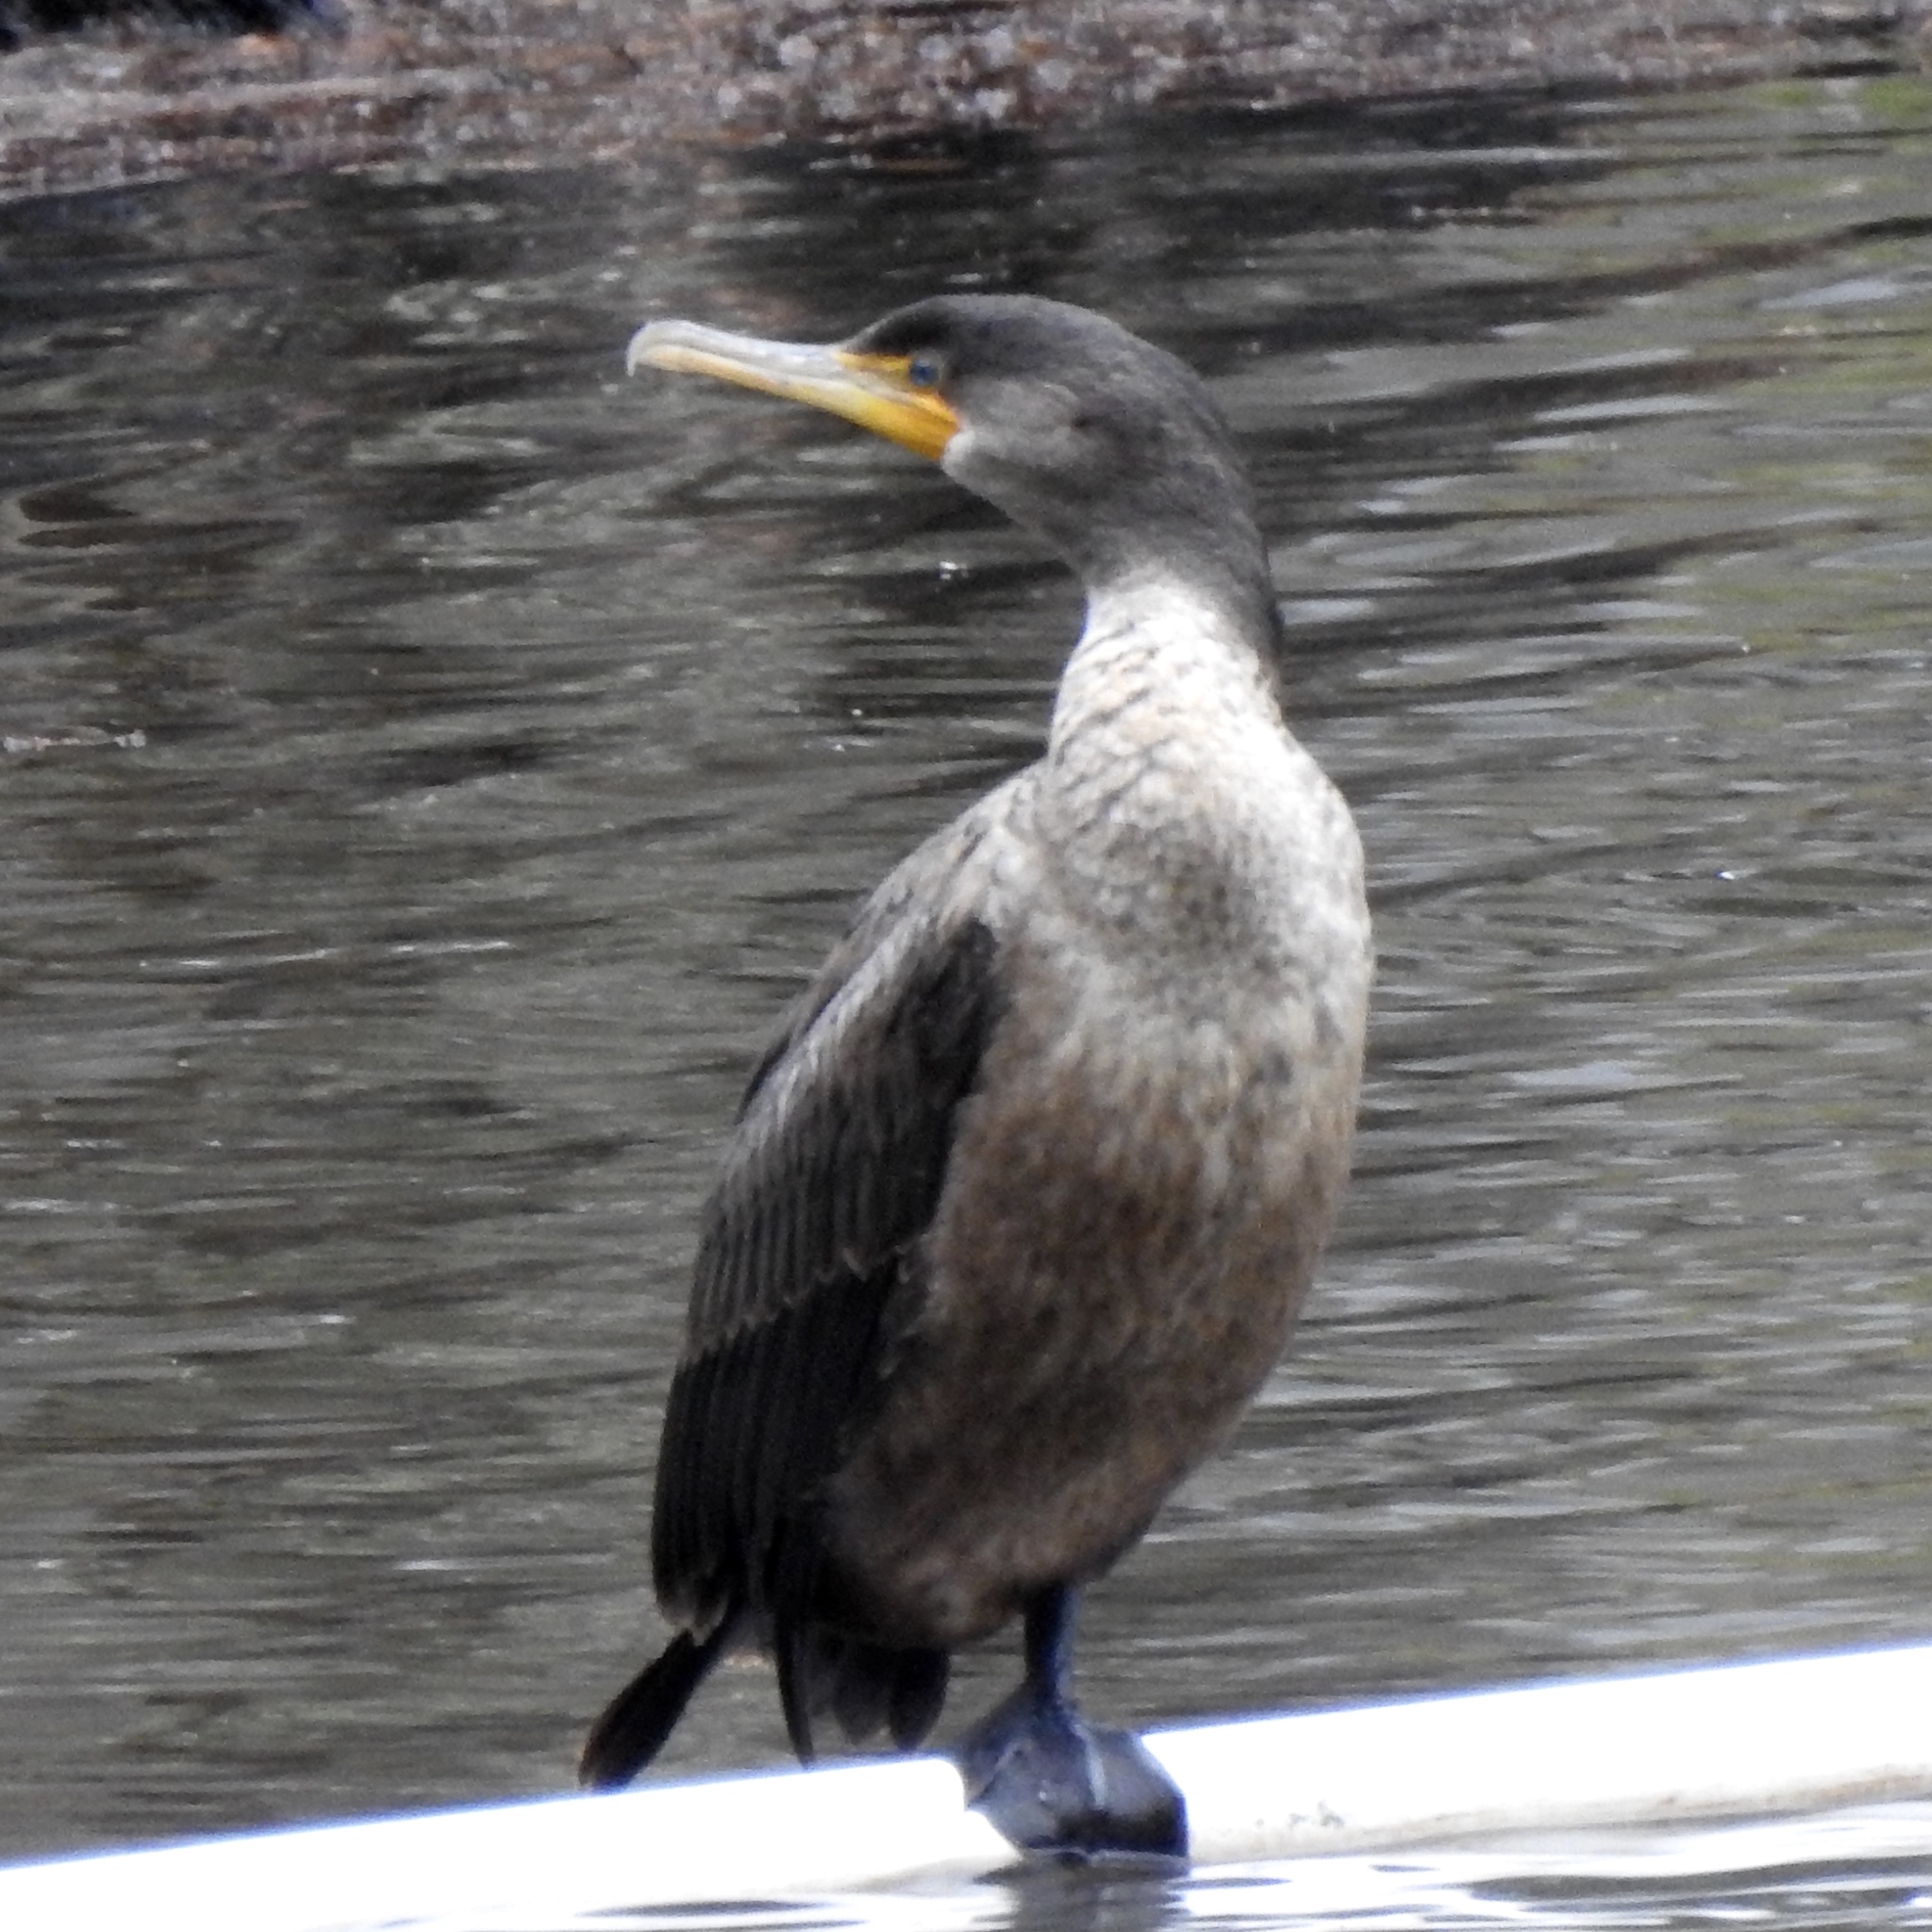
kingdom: Animalia
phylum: Chordata
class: Aves
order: Suliformes
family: Phalacrocoracidae
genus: Phalacrocorax
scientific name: Phalacrocorax auritus
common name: Double-crested cormorant
